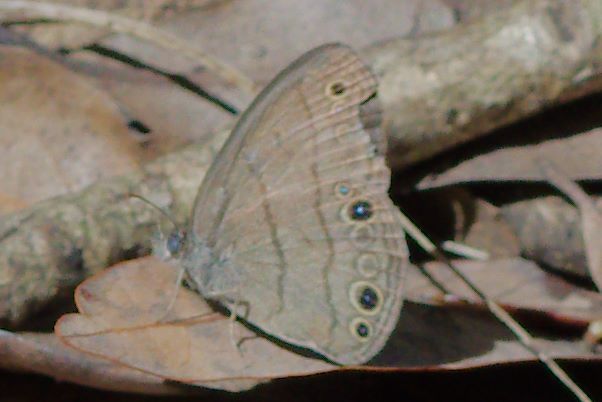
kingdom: Animalia
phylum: Arthropoda
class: Insecta
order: Lepidoptera
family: Nymphalidae
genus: Hermeuptychia
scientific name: Hermeuptychia hermes
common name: Hermes satyr
